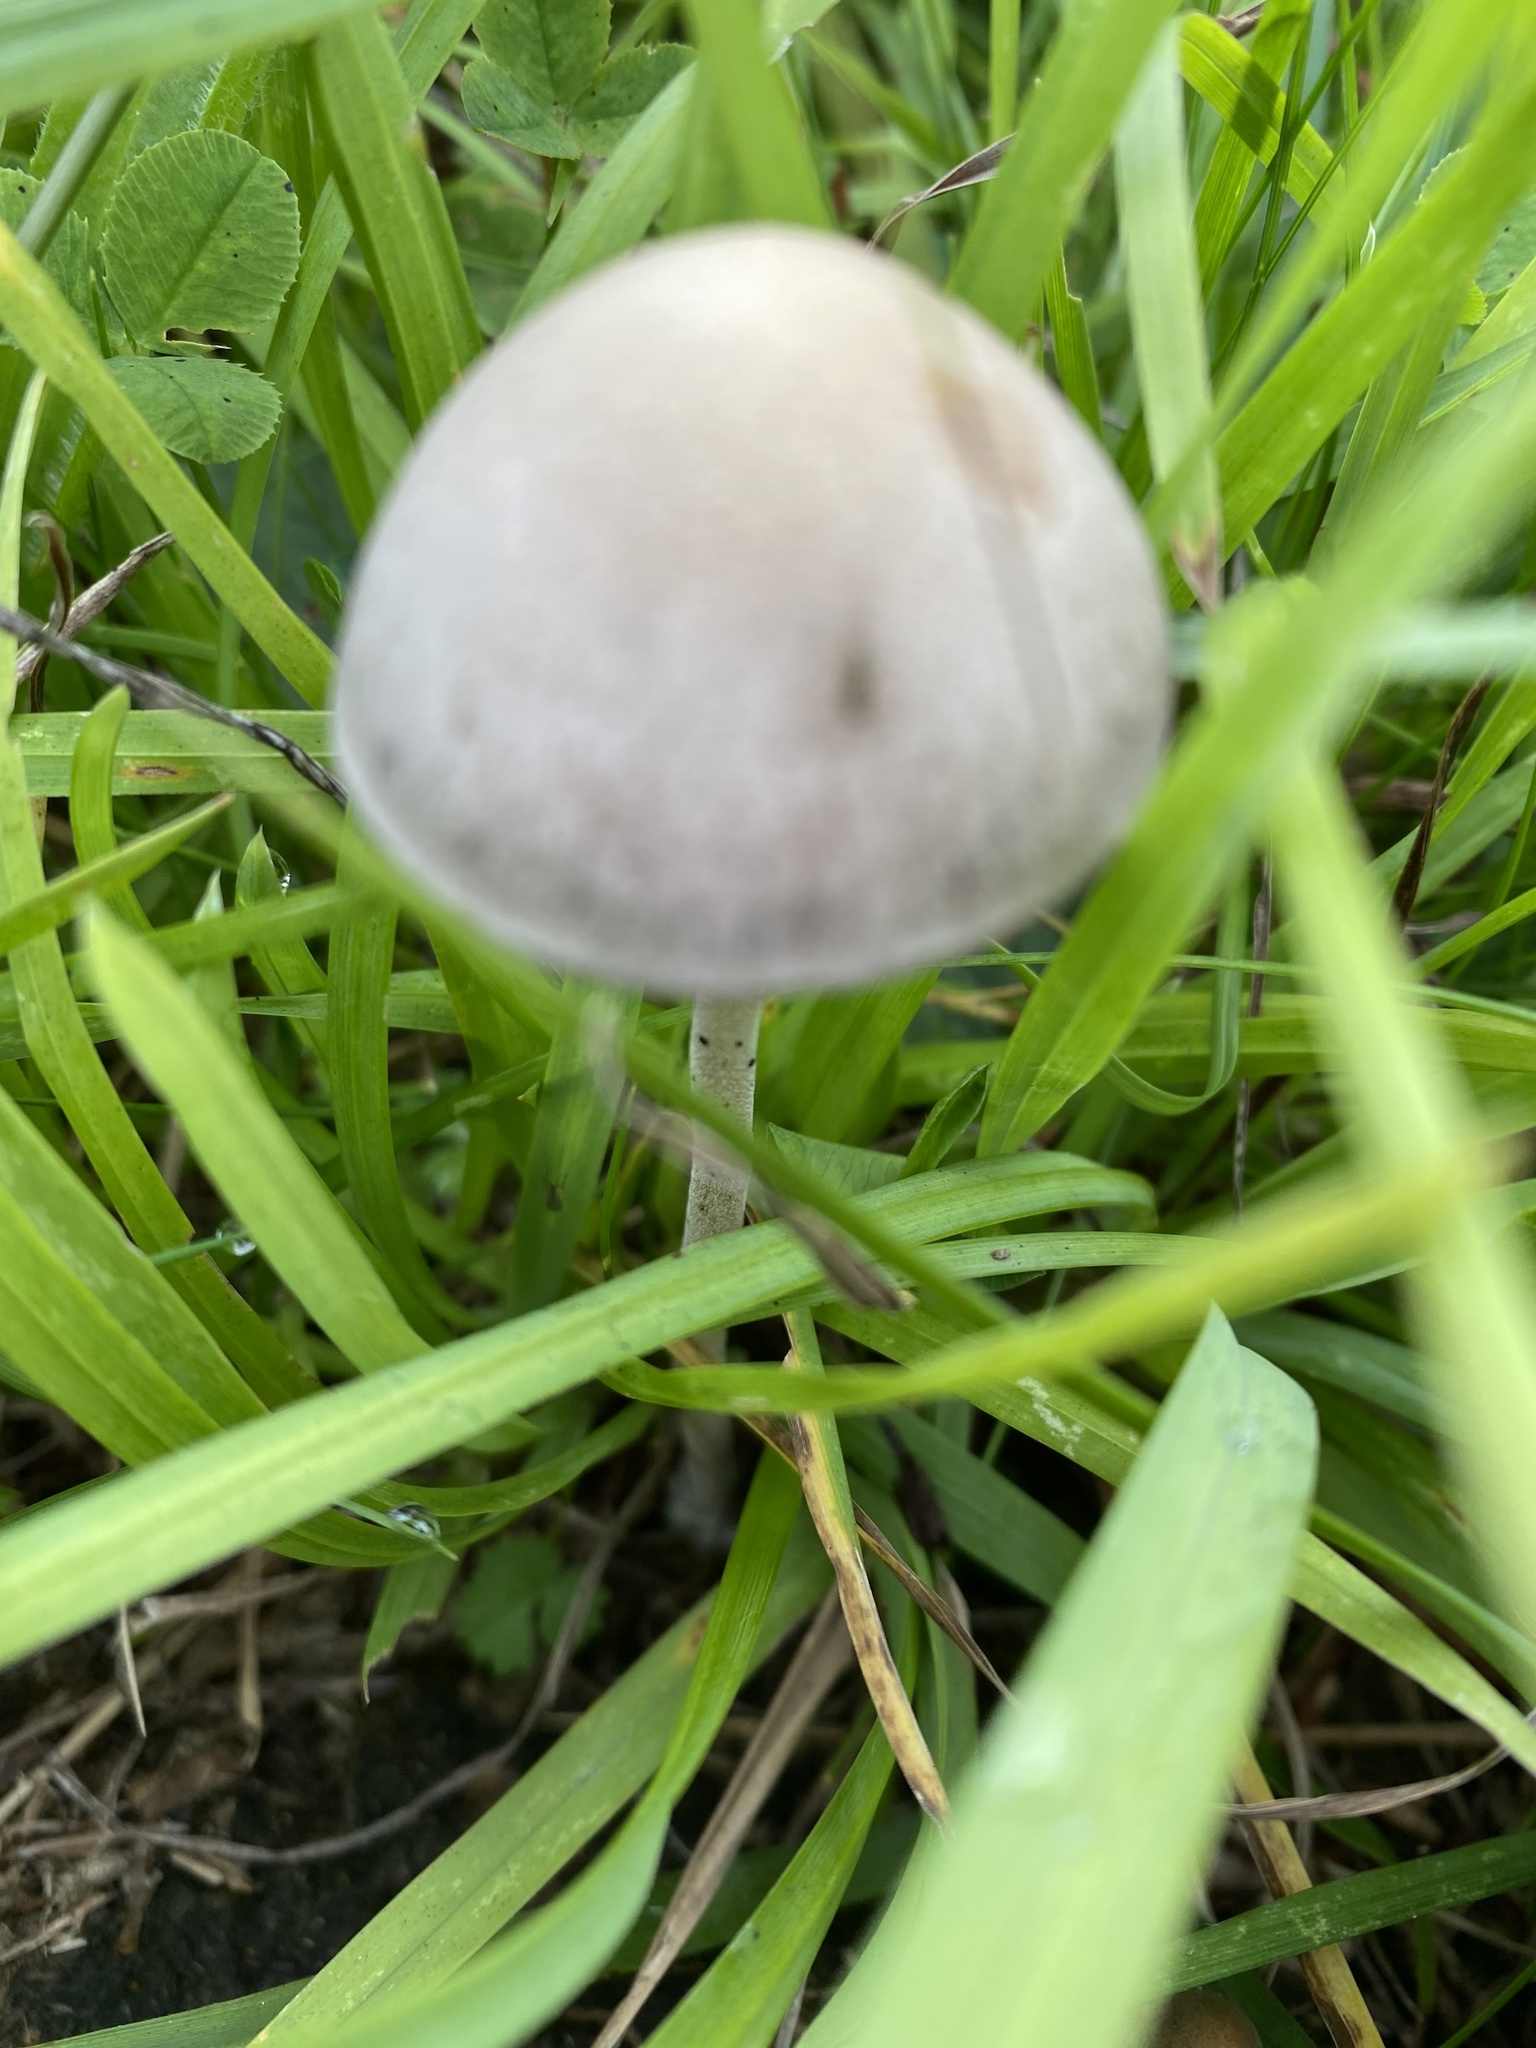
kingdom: Fungi
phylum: Basidiomycota
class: Agaricomycetes
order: Agaricales
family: Bolbitiaceae
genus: Panaeolus
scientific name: Panaeolus semiovatus
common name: Shiny mottlegill
